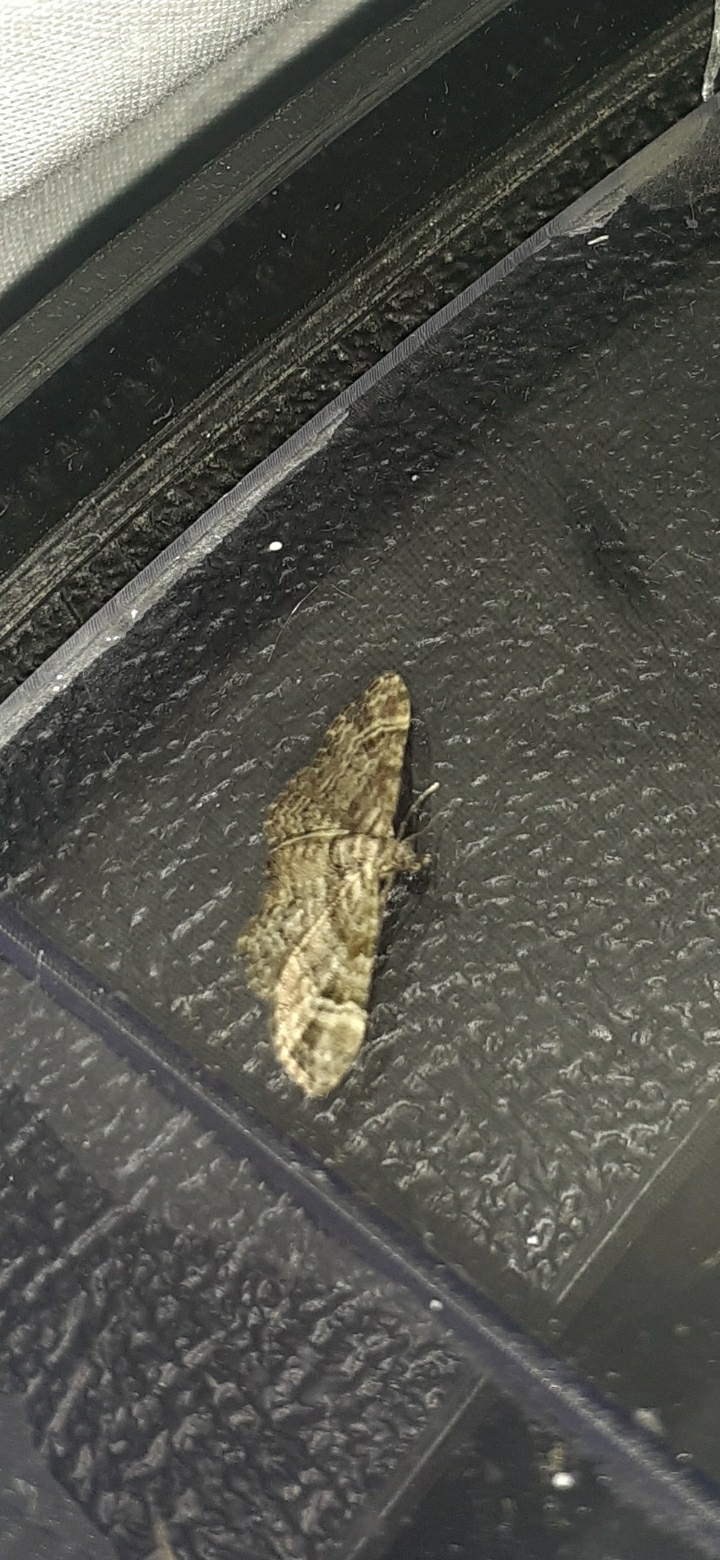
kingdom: Animalia
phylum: Arthropoda
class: Insecta
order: Lepidoptera
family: Geometridae
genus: Gymnoscelis
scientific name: Gymnoscelis rufifasciata
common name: Double-striped pug
